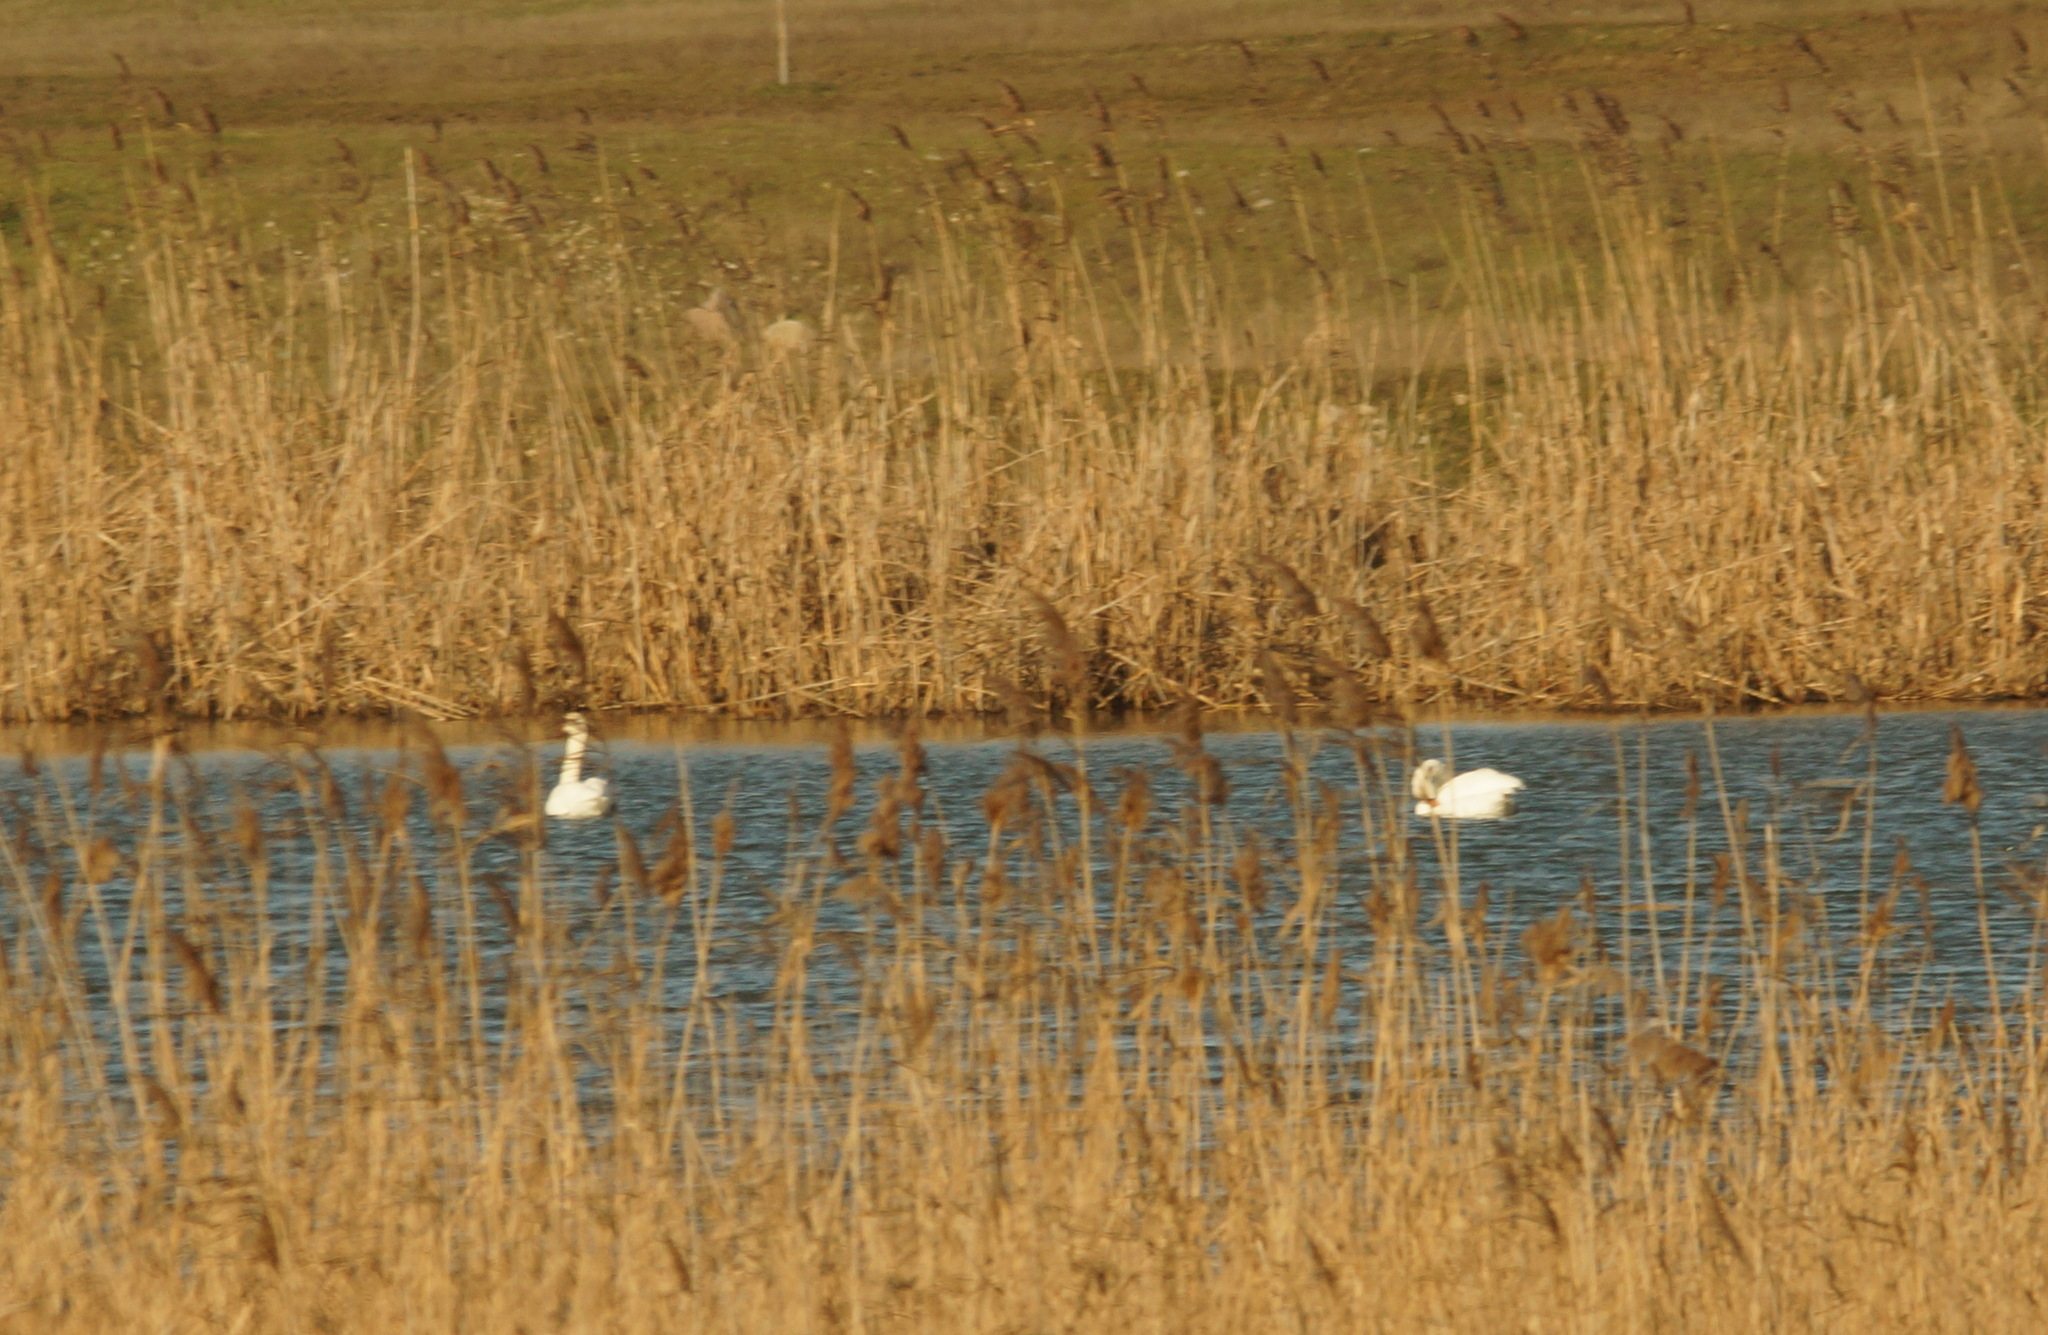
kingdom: Animalia
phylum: Chordata
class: Aves
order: Anseriformes
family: Anatidae
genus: Cygnus
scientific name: Cygnus olor
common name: Mute swan
